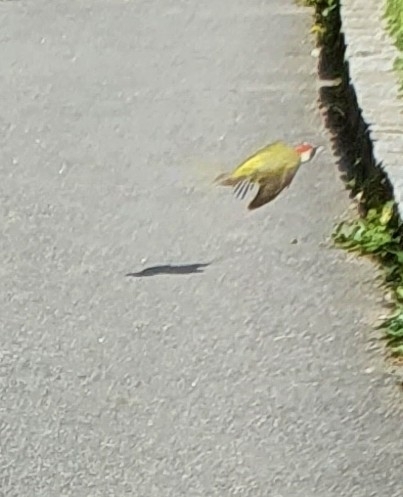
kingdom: Animalia
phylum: Chordata
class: Aves
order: Piciformes
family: Picidae
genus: Picus
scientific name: Picus viridis
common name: European green woodpecker
